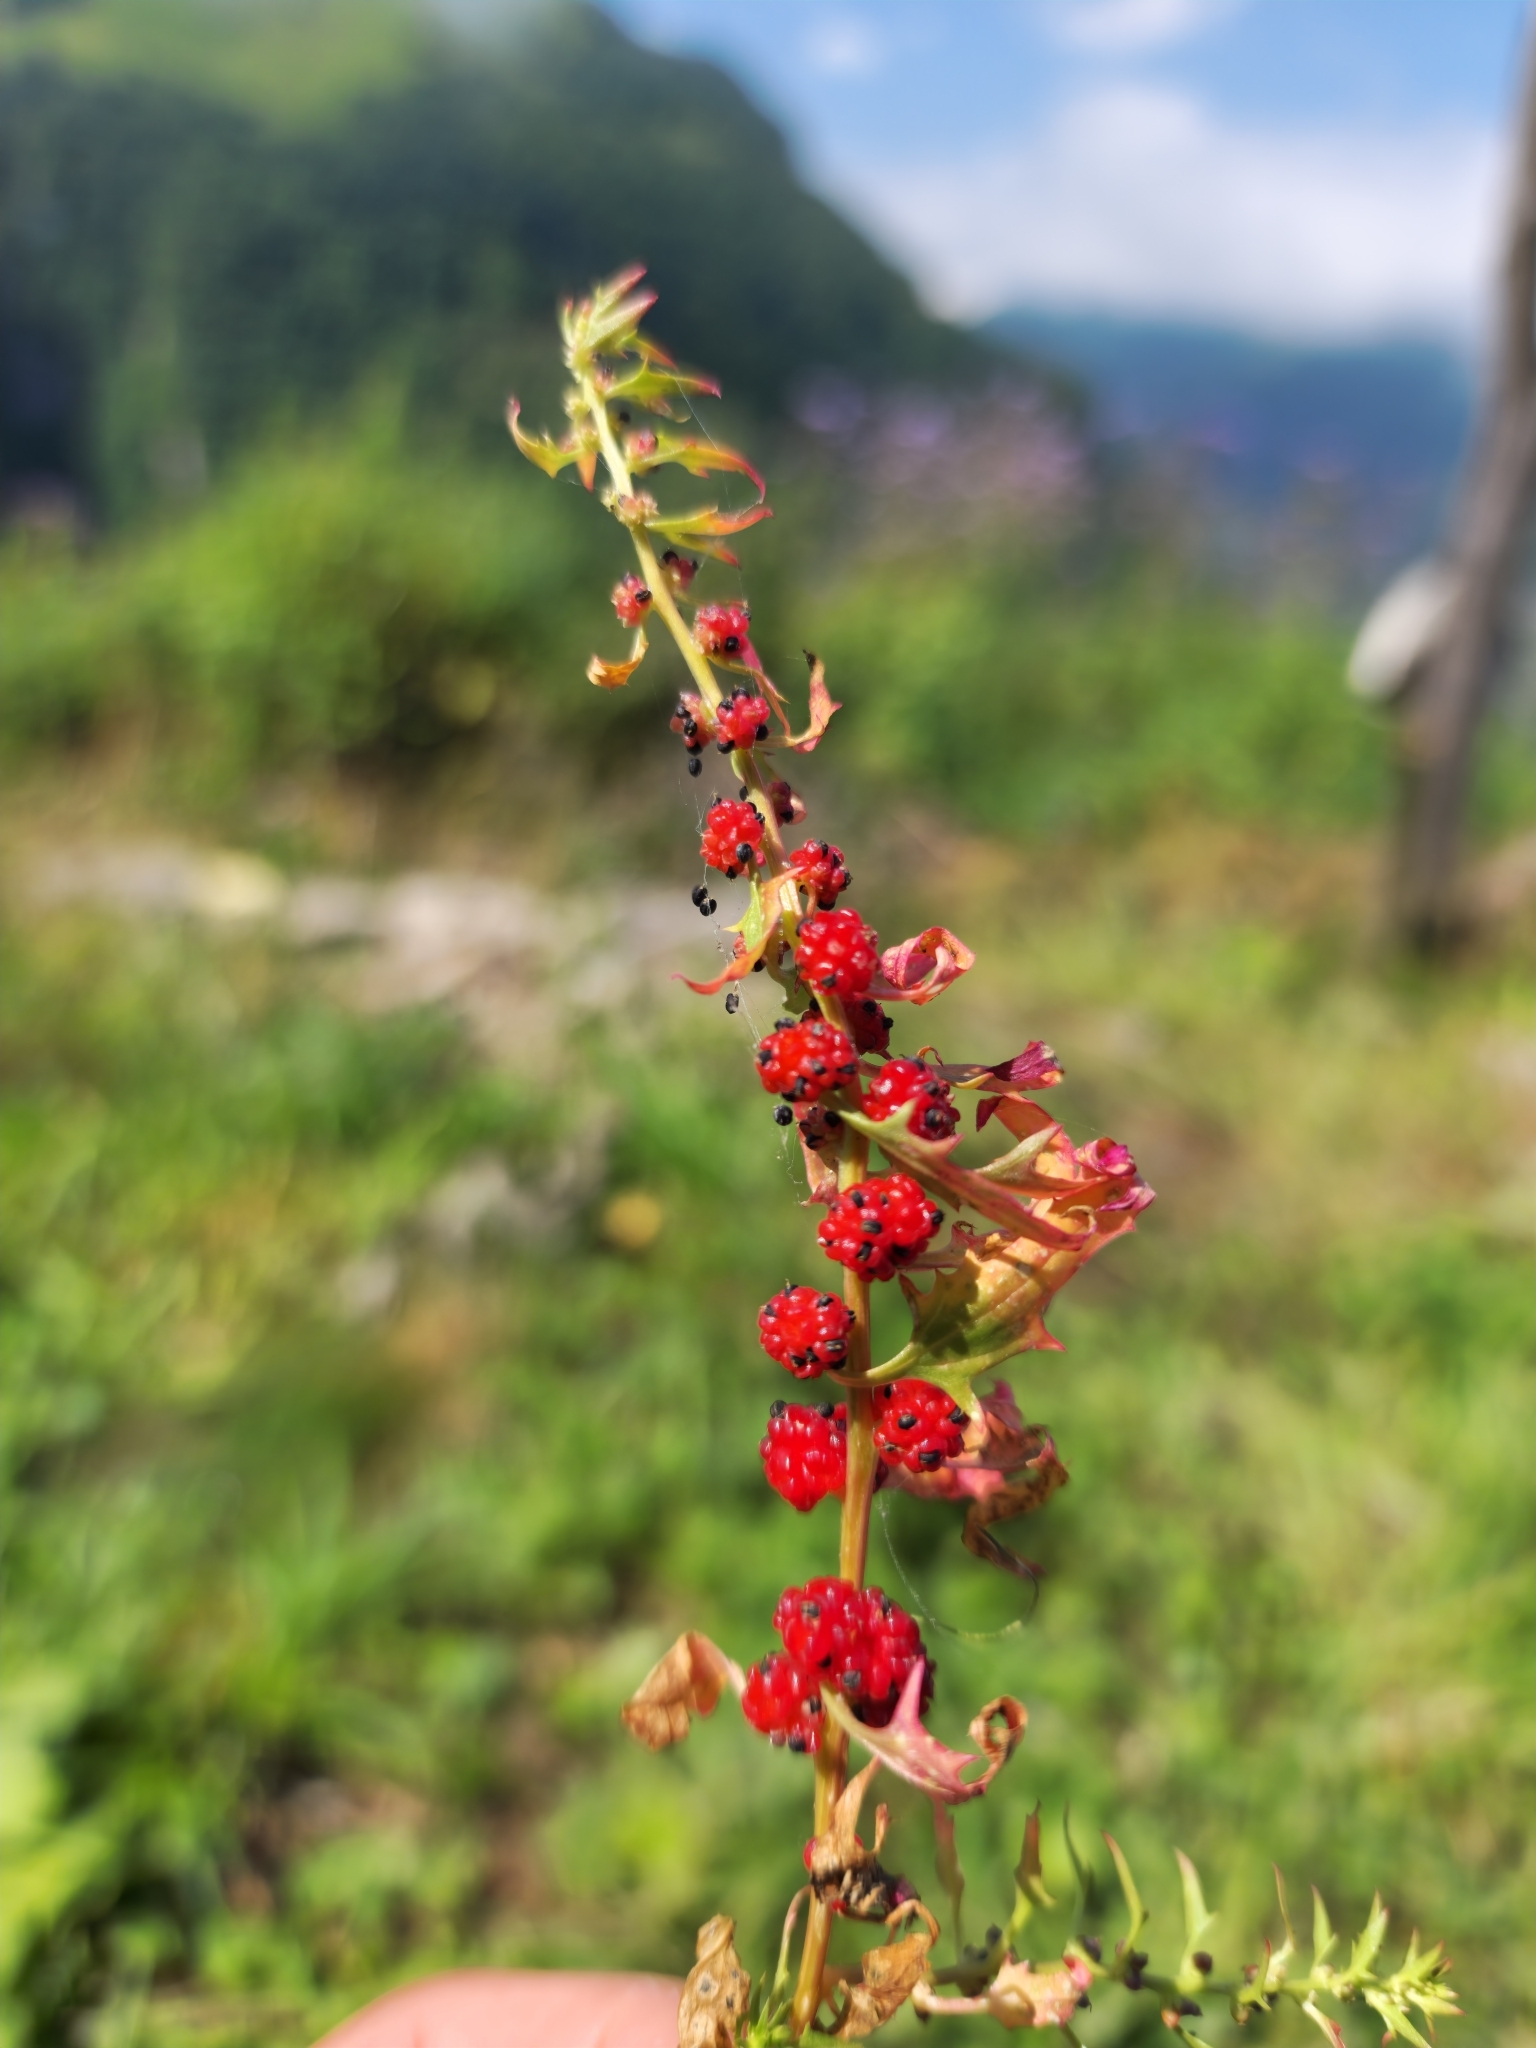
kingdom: Plantae
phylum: Tracheophyta
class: Magnoliopsida
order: Caryophyllales
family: Amaranthaceae
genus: Blitum
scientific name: Blitum virgatum
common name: Strawberry goosefoot
